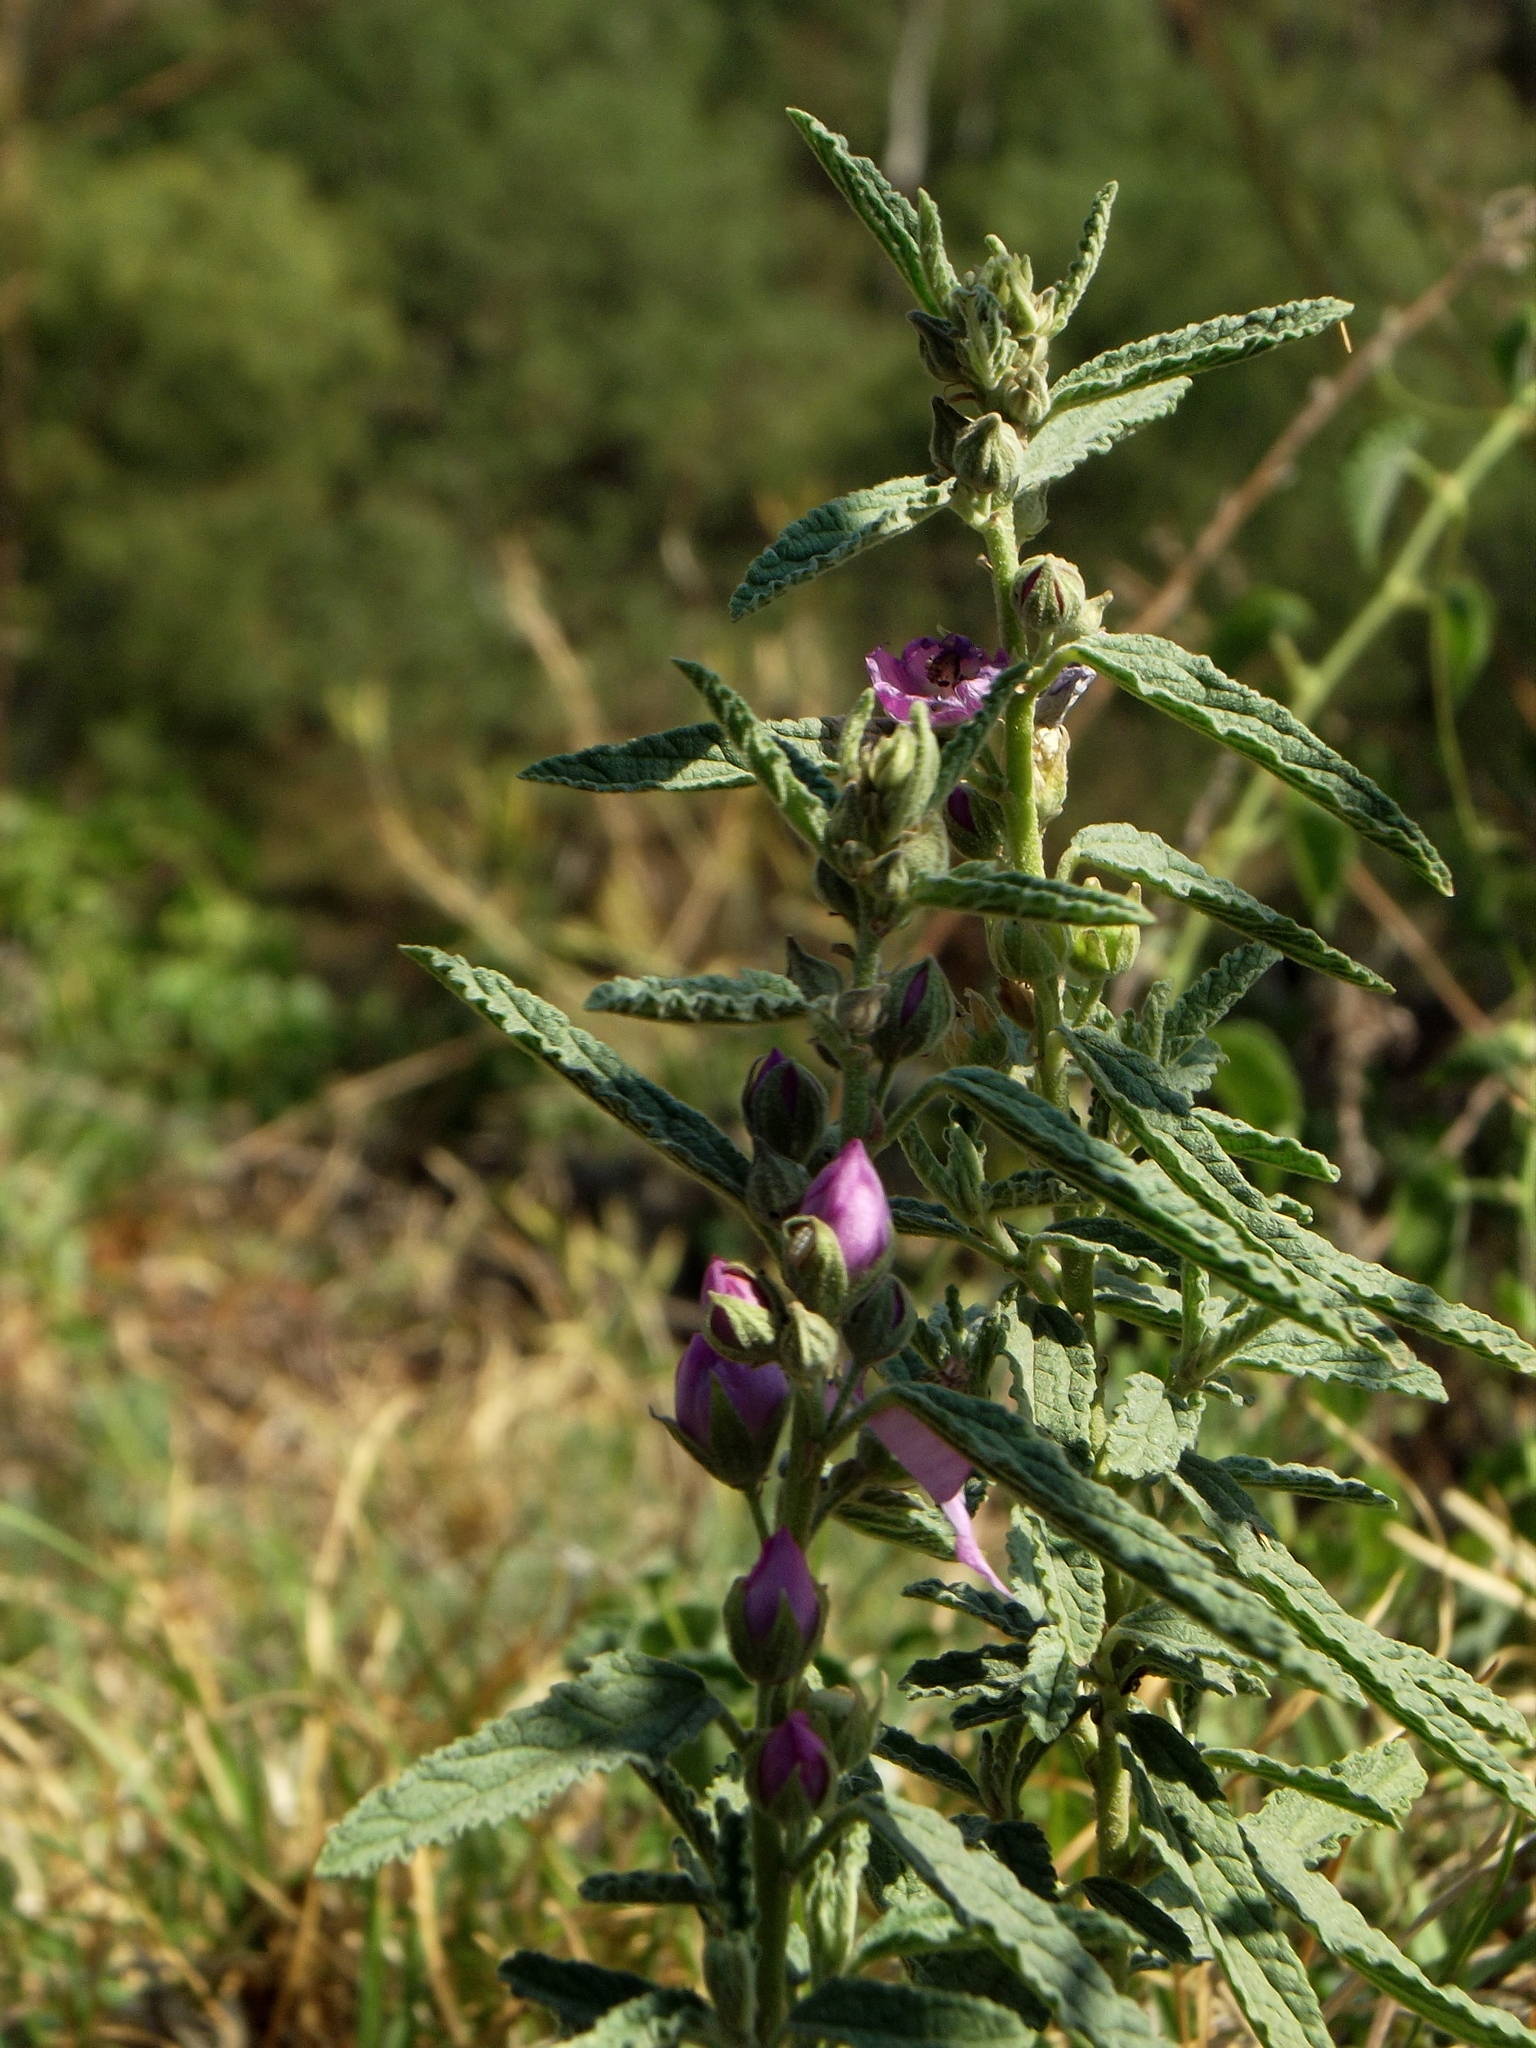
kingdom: Plantae
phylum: Tracheophyta
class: Magnoliopsida
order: Malvales
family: Malvaceae
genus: Sphaeralcea
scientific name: Sphaeralcea angustifolia
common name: Copper globe-mallow
